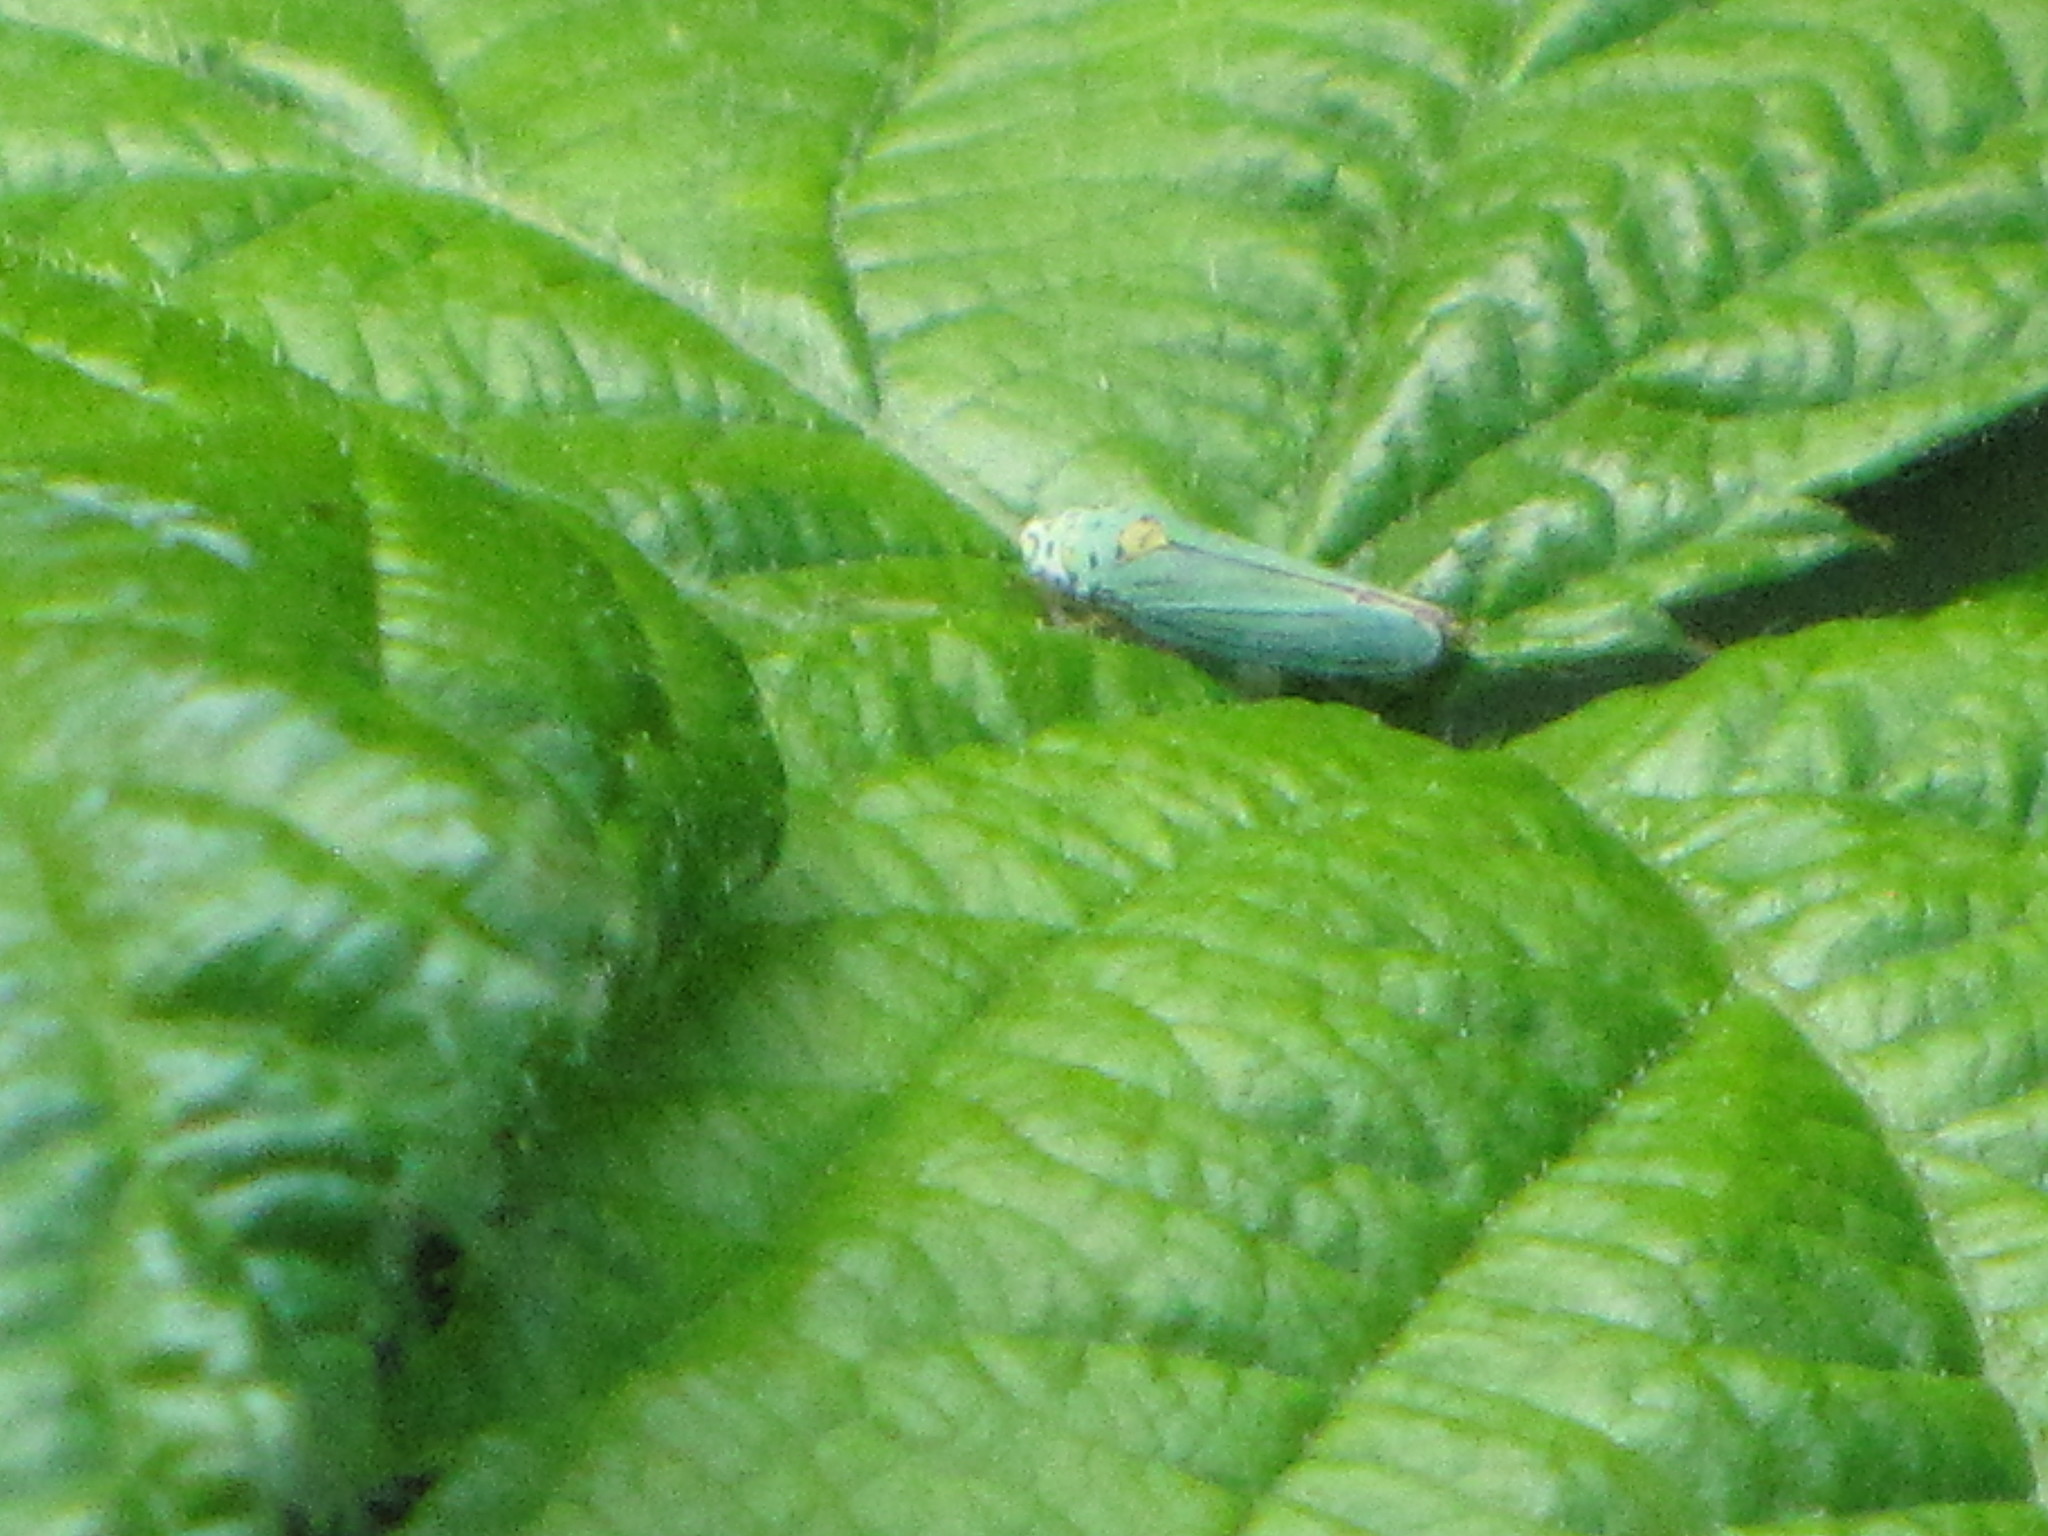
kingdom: Animalia
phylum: Arthropoda
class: Insecta
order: Hemiptera
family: Cicadellidae
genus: Graphocephala
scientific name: Graphocephala atropunctata
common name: Blue-green sharpshooter
